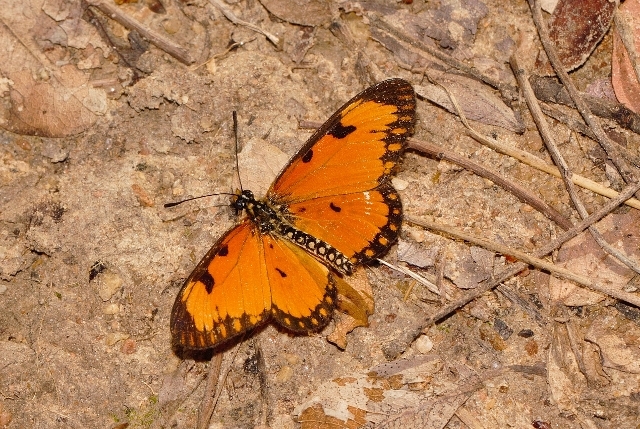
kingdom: Animalia
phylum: Arthropoda
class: Insecta
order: Lepidoptera
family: Nymphalidae
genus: Acraea
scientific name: Acraea Telchinia serena
